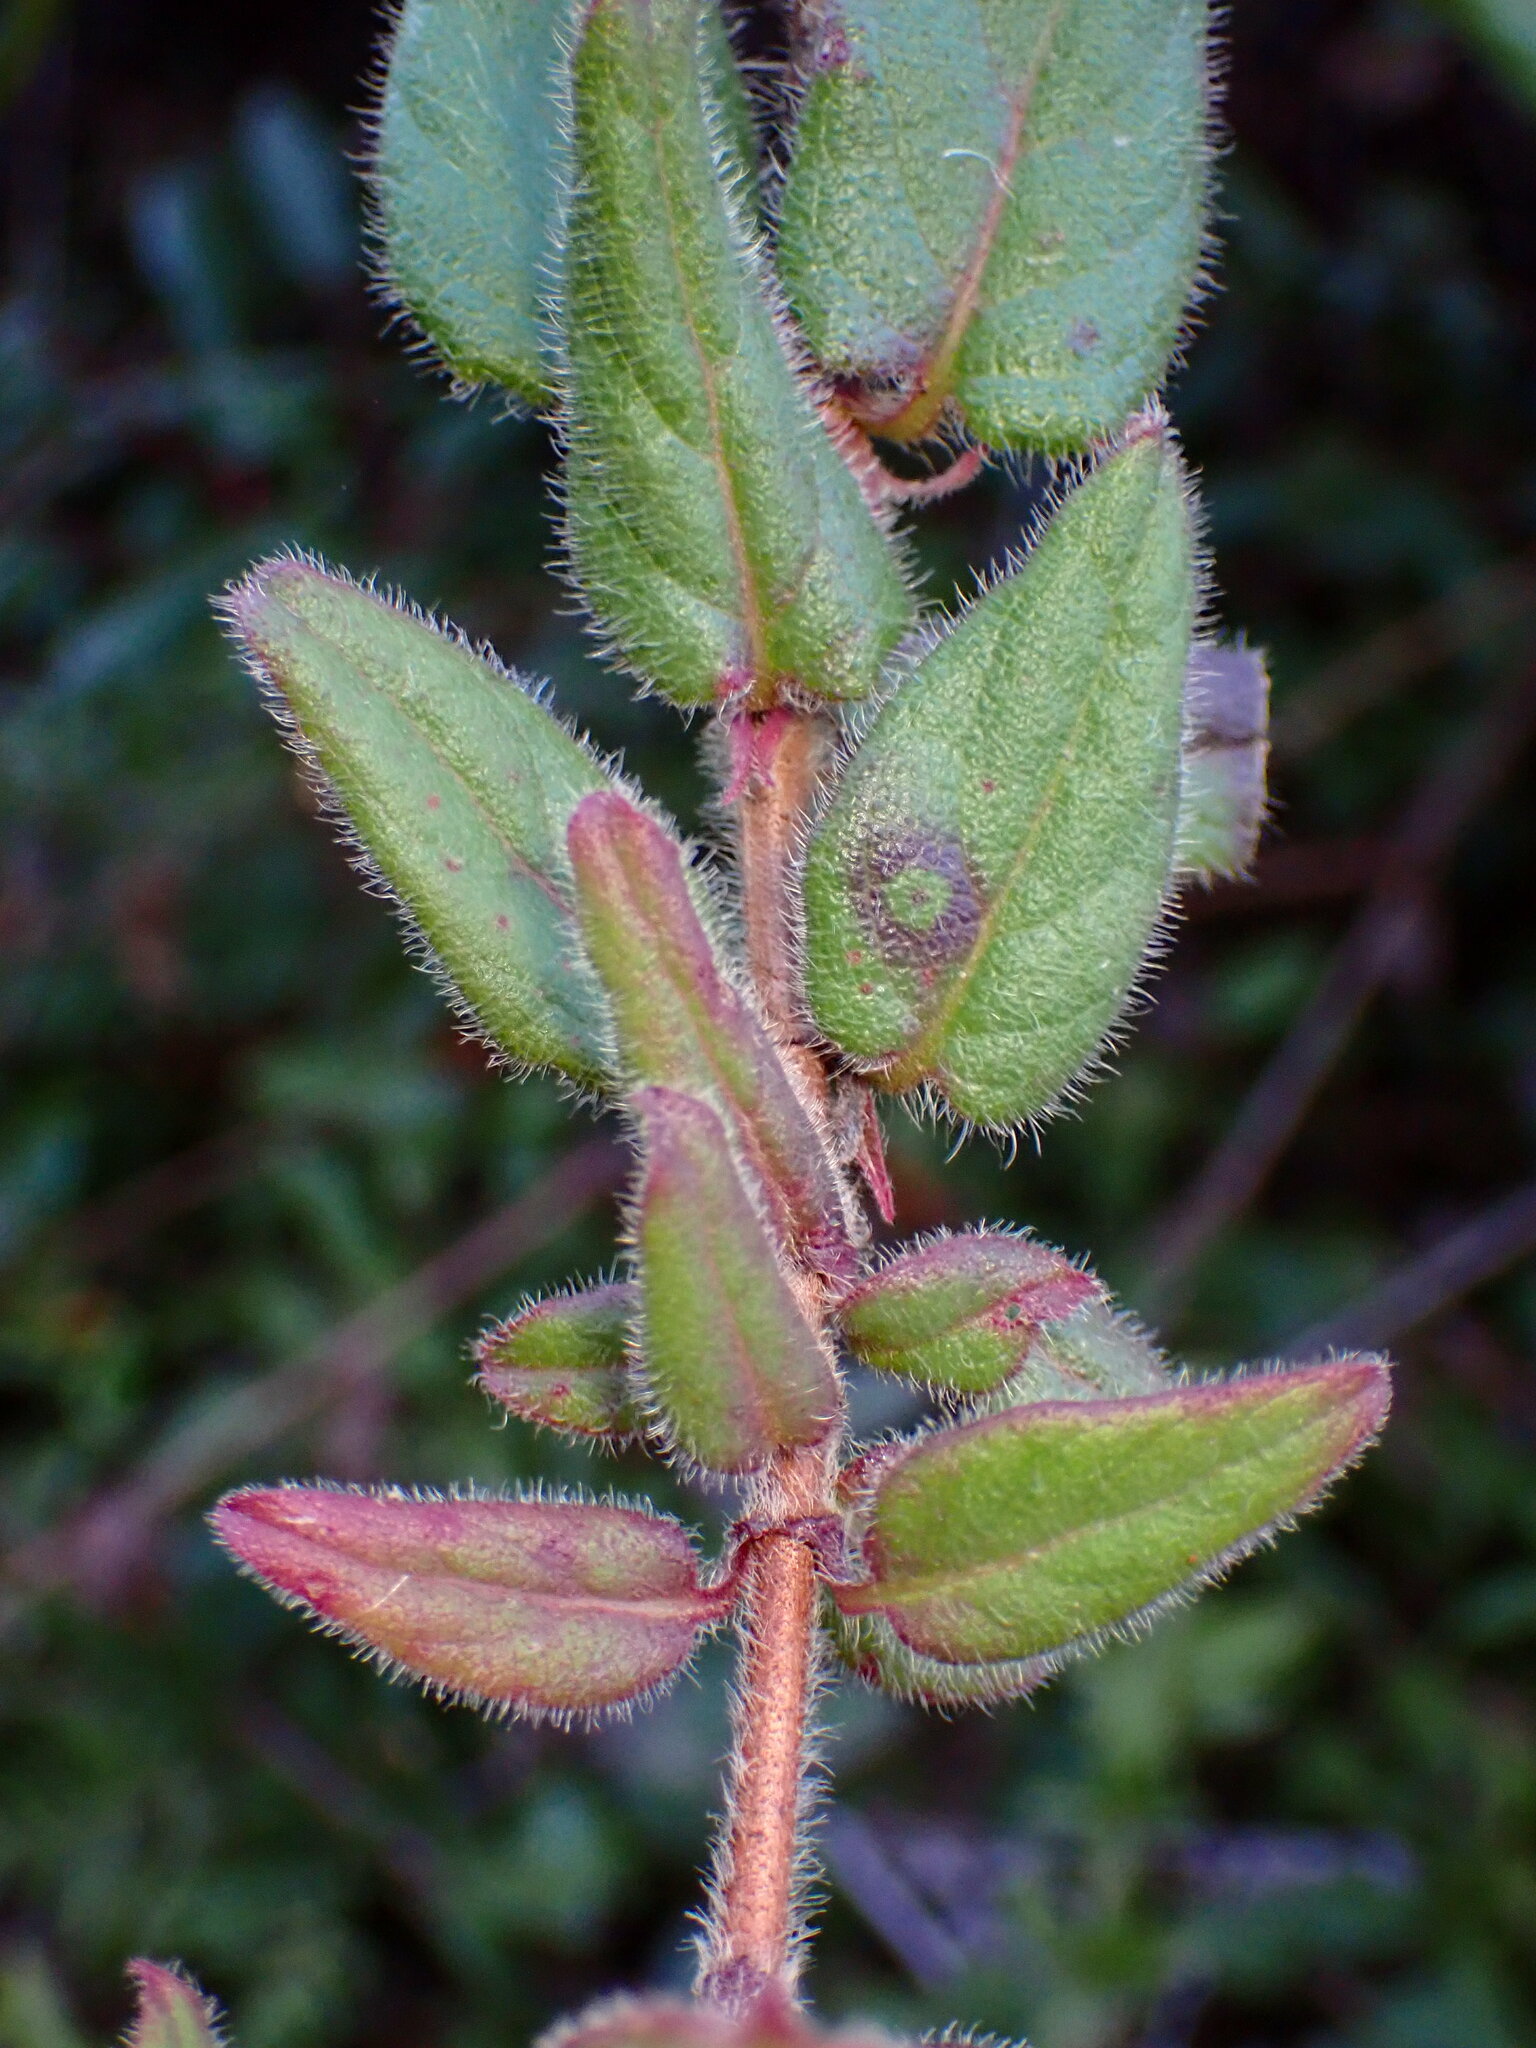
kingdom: Plantae
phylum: Tracheophyta
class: Magnoliopsida
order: Dipsacales
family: Caprifoliaceae
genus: Lonicera
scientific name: Lonicera hispidula
